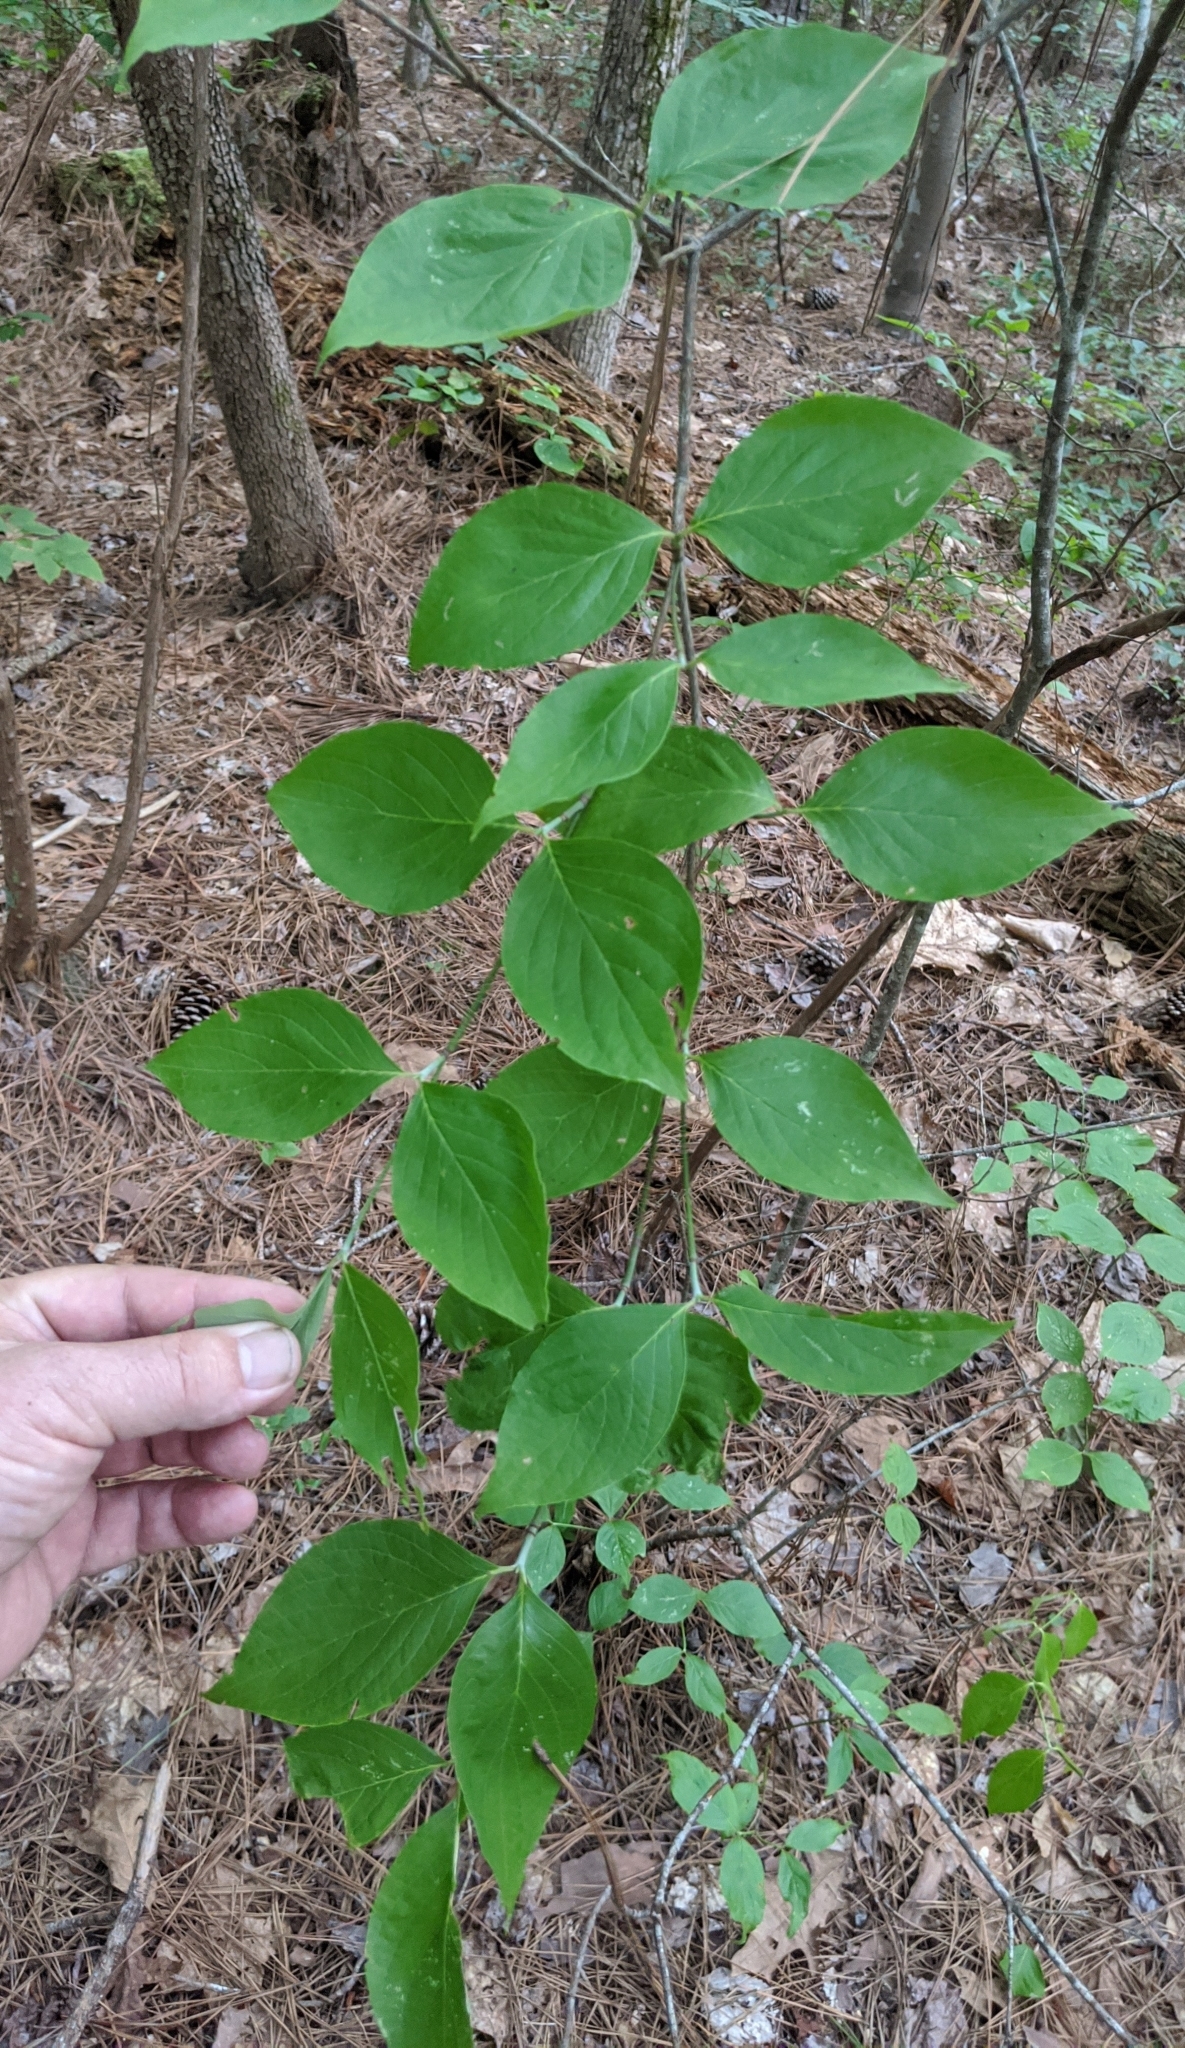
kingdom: Plantae
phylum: Tracheophyta
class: Magnoliopsida
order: Cornales
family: Cornaceae
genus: Cornus
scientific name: Cornus florida
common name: Flowering dogwood
